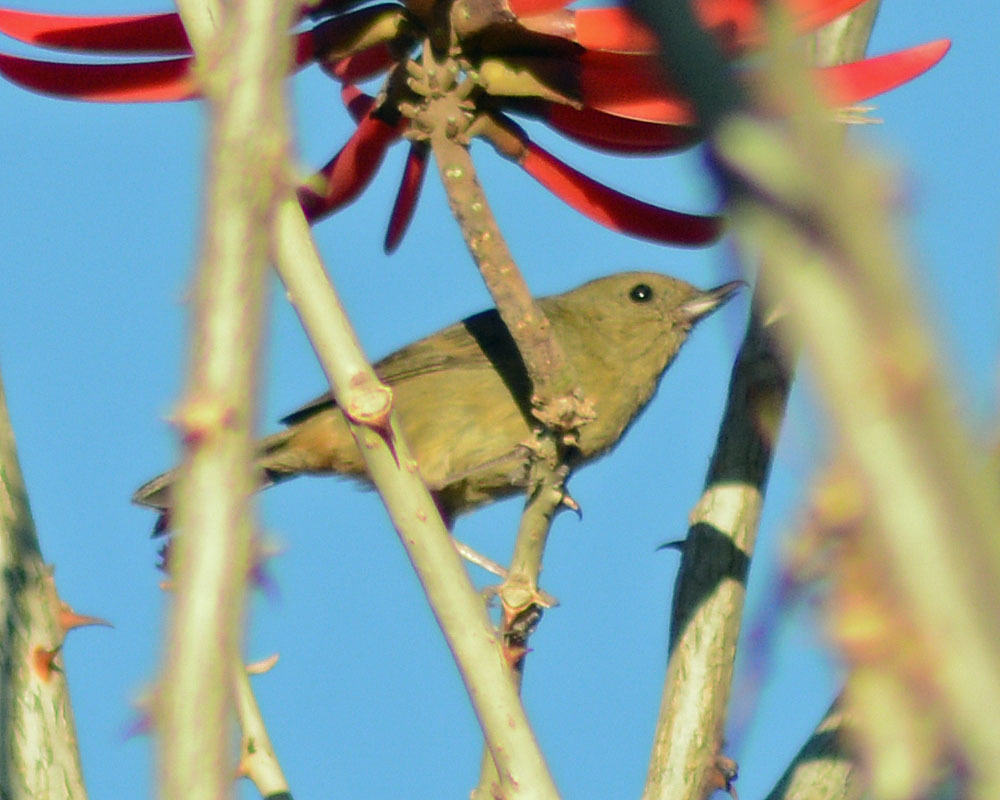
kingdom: Animalia
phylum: Chordata
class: Aves
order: Passeriformes
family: Thraupidae
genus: Diglossa
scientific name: Diglossa baritula
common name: Cinnamon-bellied flowerpiercer
